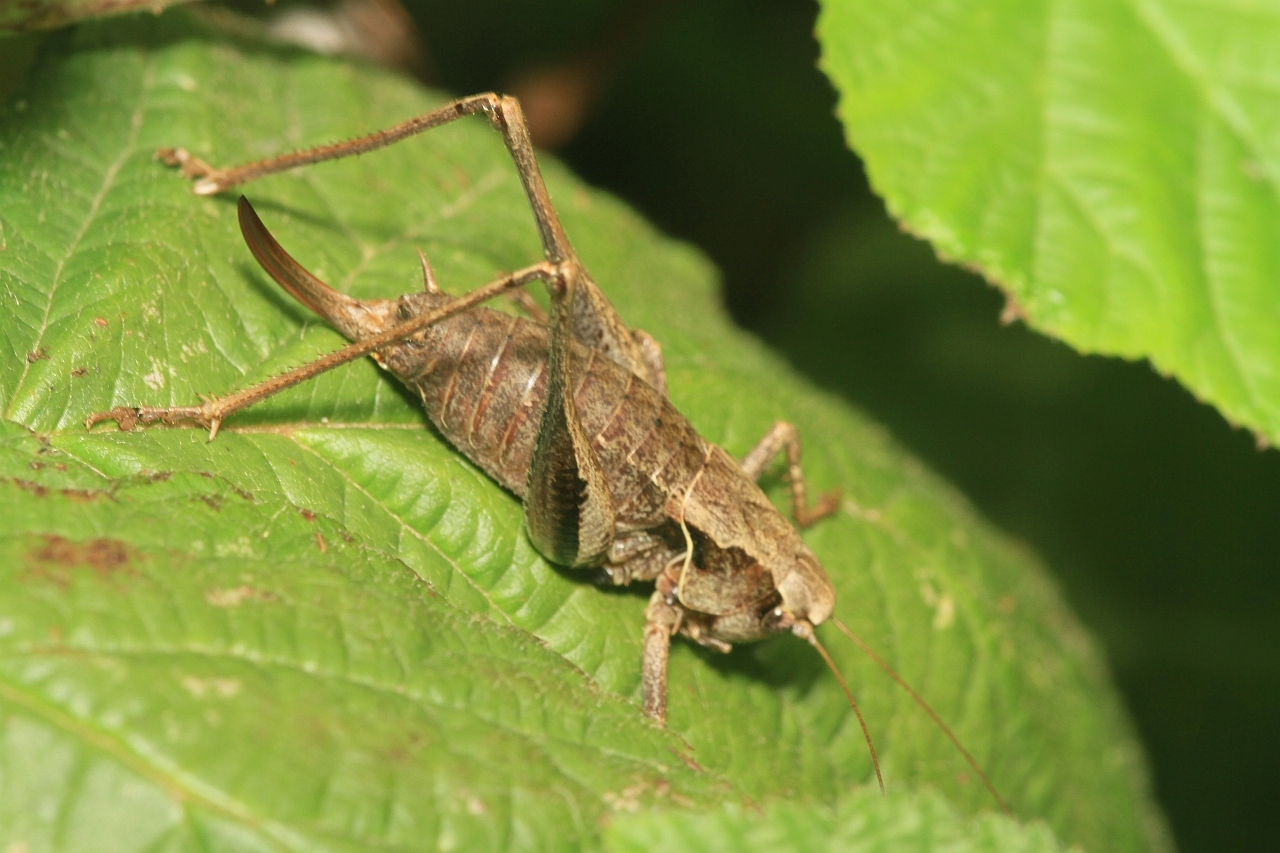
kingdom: Animalia
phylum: Arthropoda
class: Insecta
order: Orthoptera
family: Tettigoniidae
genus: Pholidoptera
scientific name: Pholidoptera griseoaptera
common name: Dark bush-cricket
